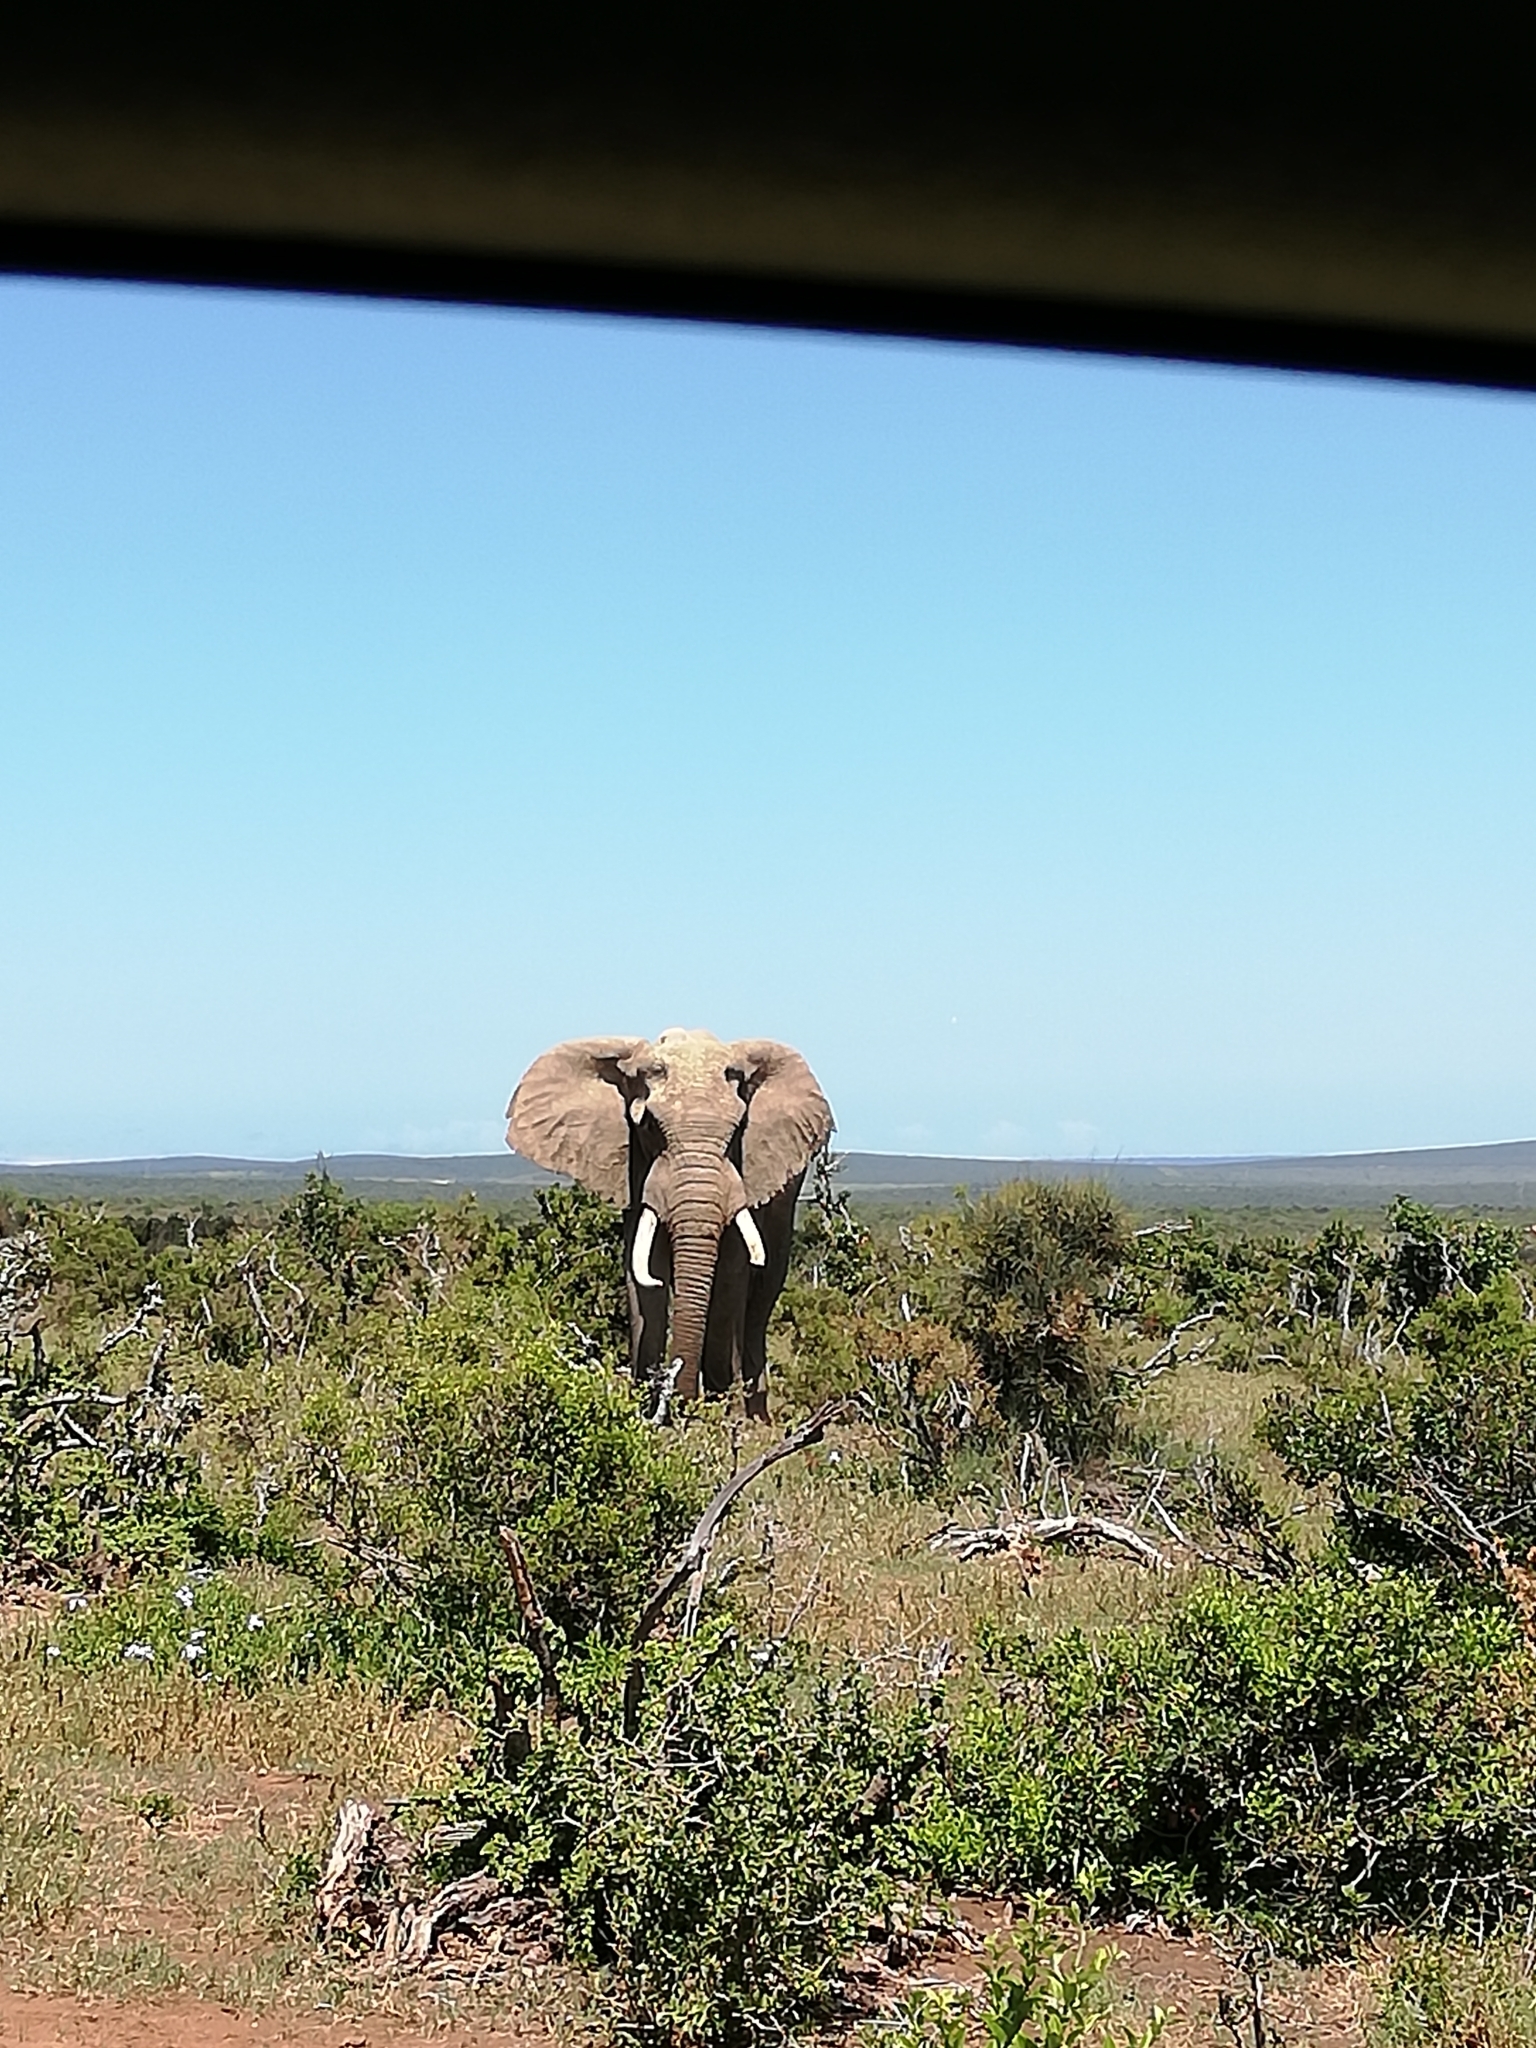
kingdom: Animalia
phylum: Chordata
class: Mammalia
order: Proboscidea
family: Elephantidae
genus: Loxodonta
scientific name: Loxodonta africana
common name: African elephant
